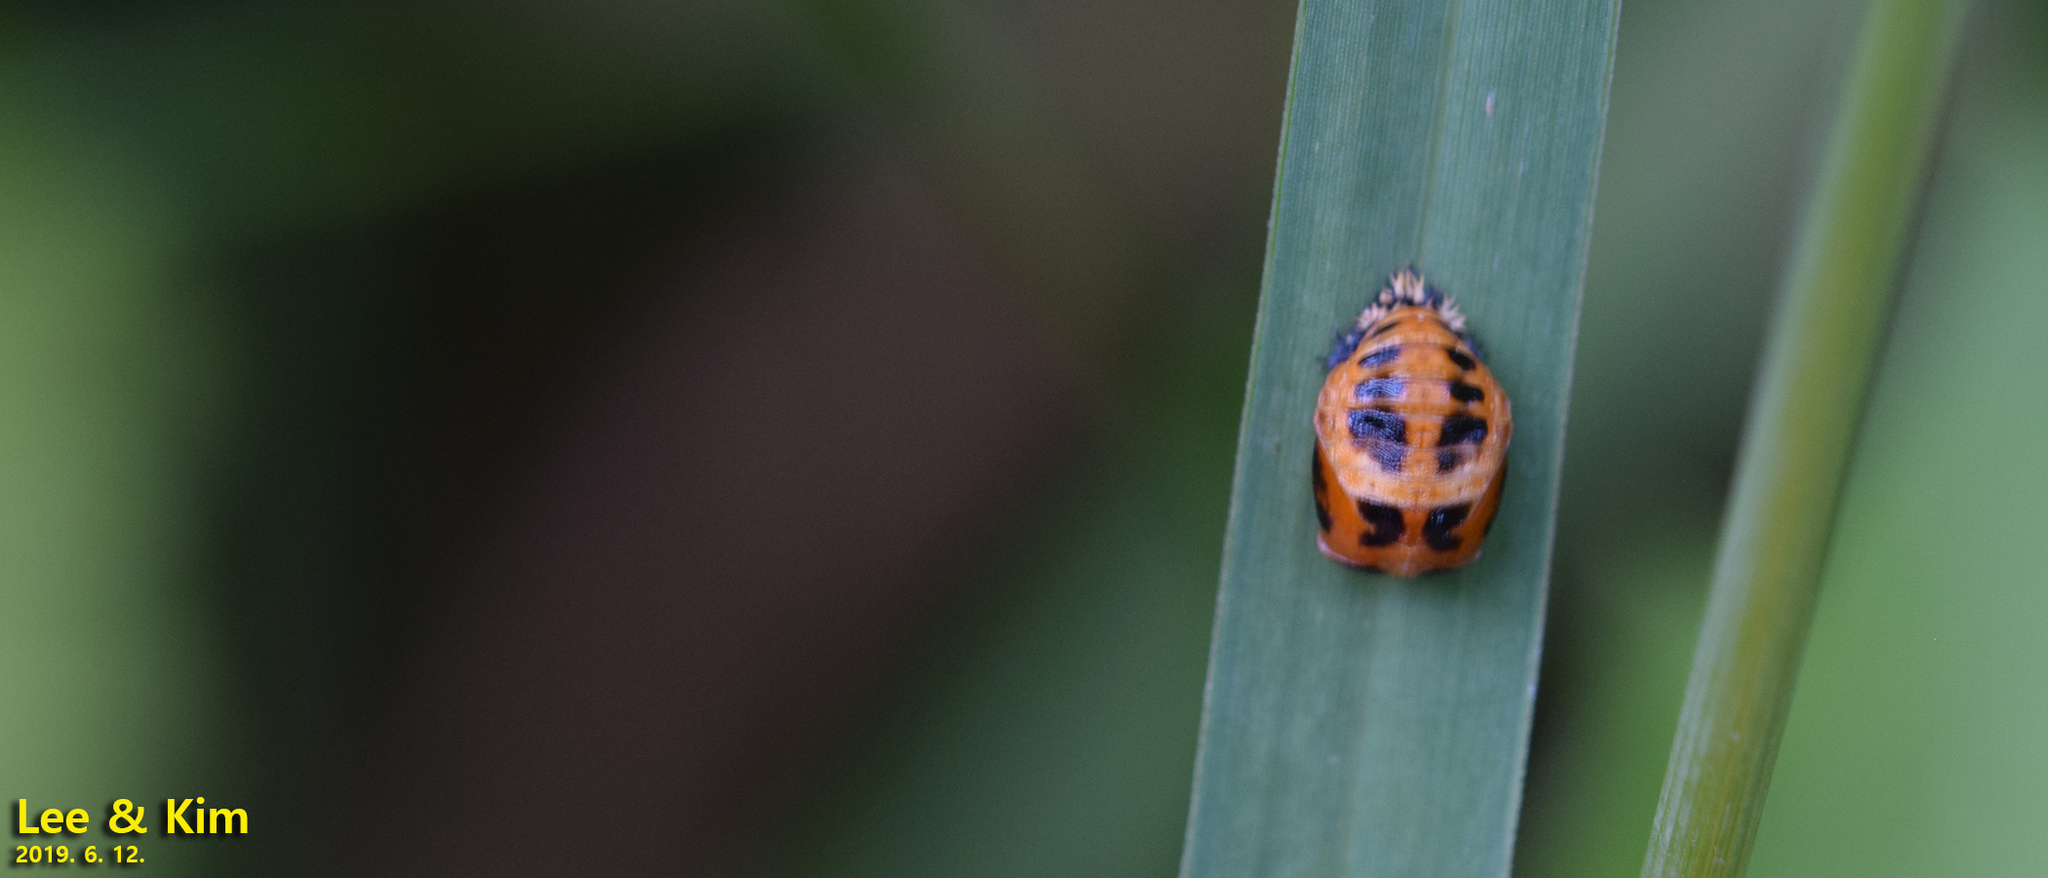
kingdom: Animalia
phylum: Arthropoda
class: Insecta
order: Coleoptera
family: Coccinellidae
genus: Harmonia
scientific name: Harmonia axyridis
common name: Harlequin ladybird
